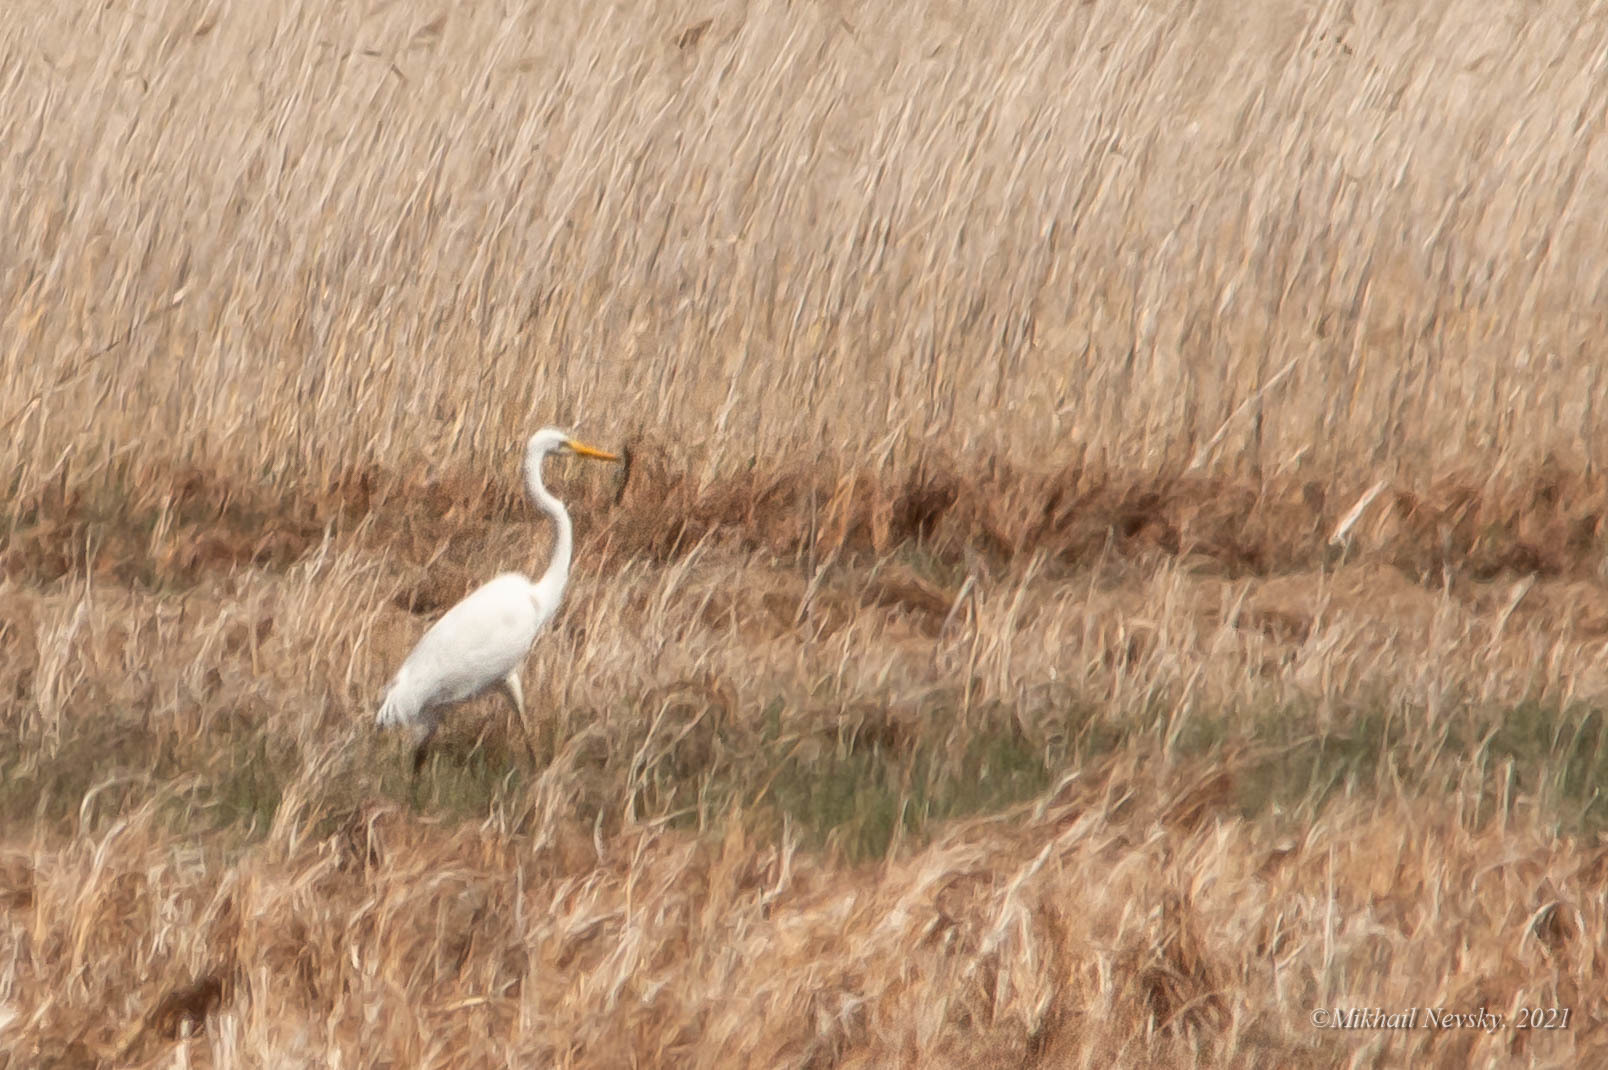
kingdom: Animalia
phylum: Chordata
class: Aves
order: Pelecaniformes
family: Ardeidae
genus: Ardea
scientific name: Ardea alba
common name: Great egret
